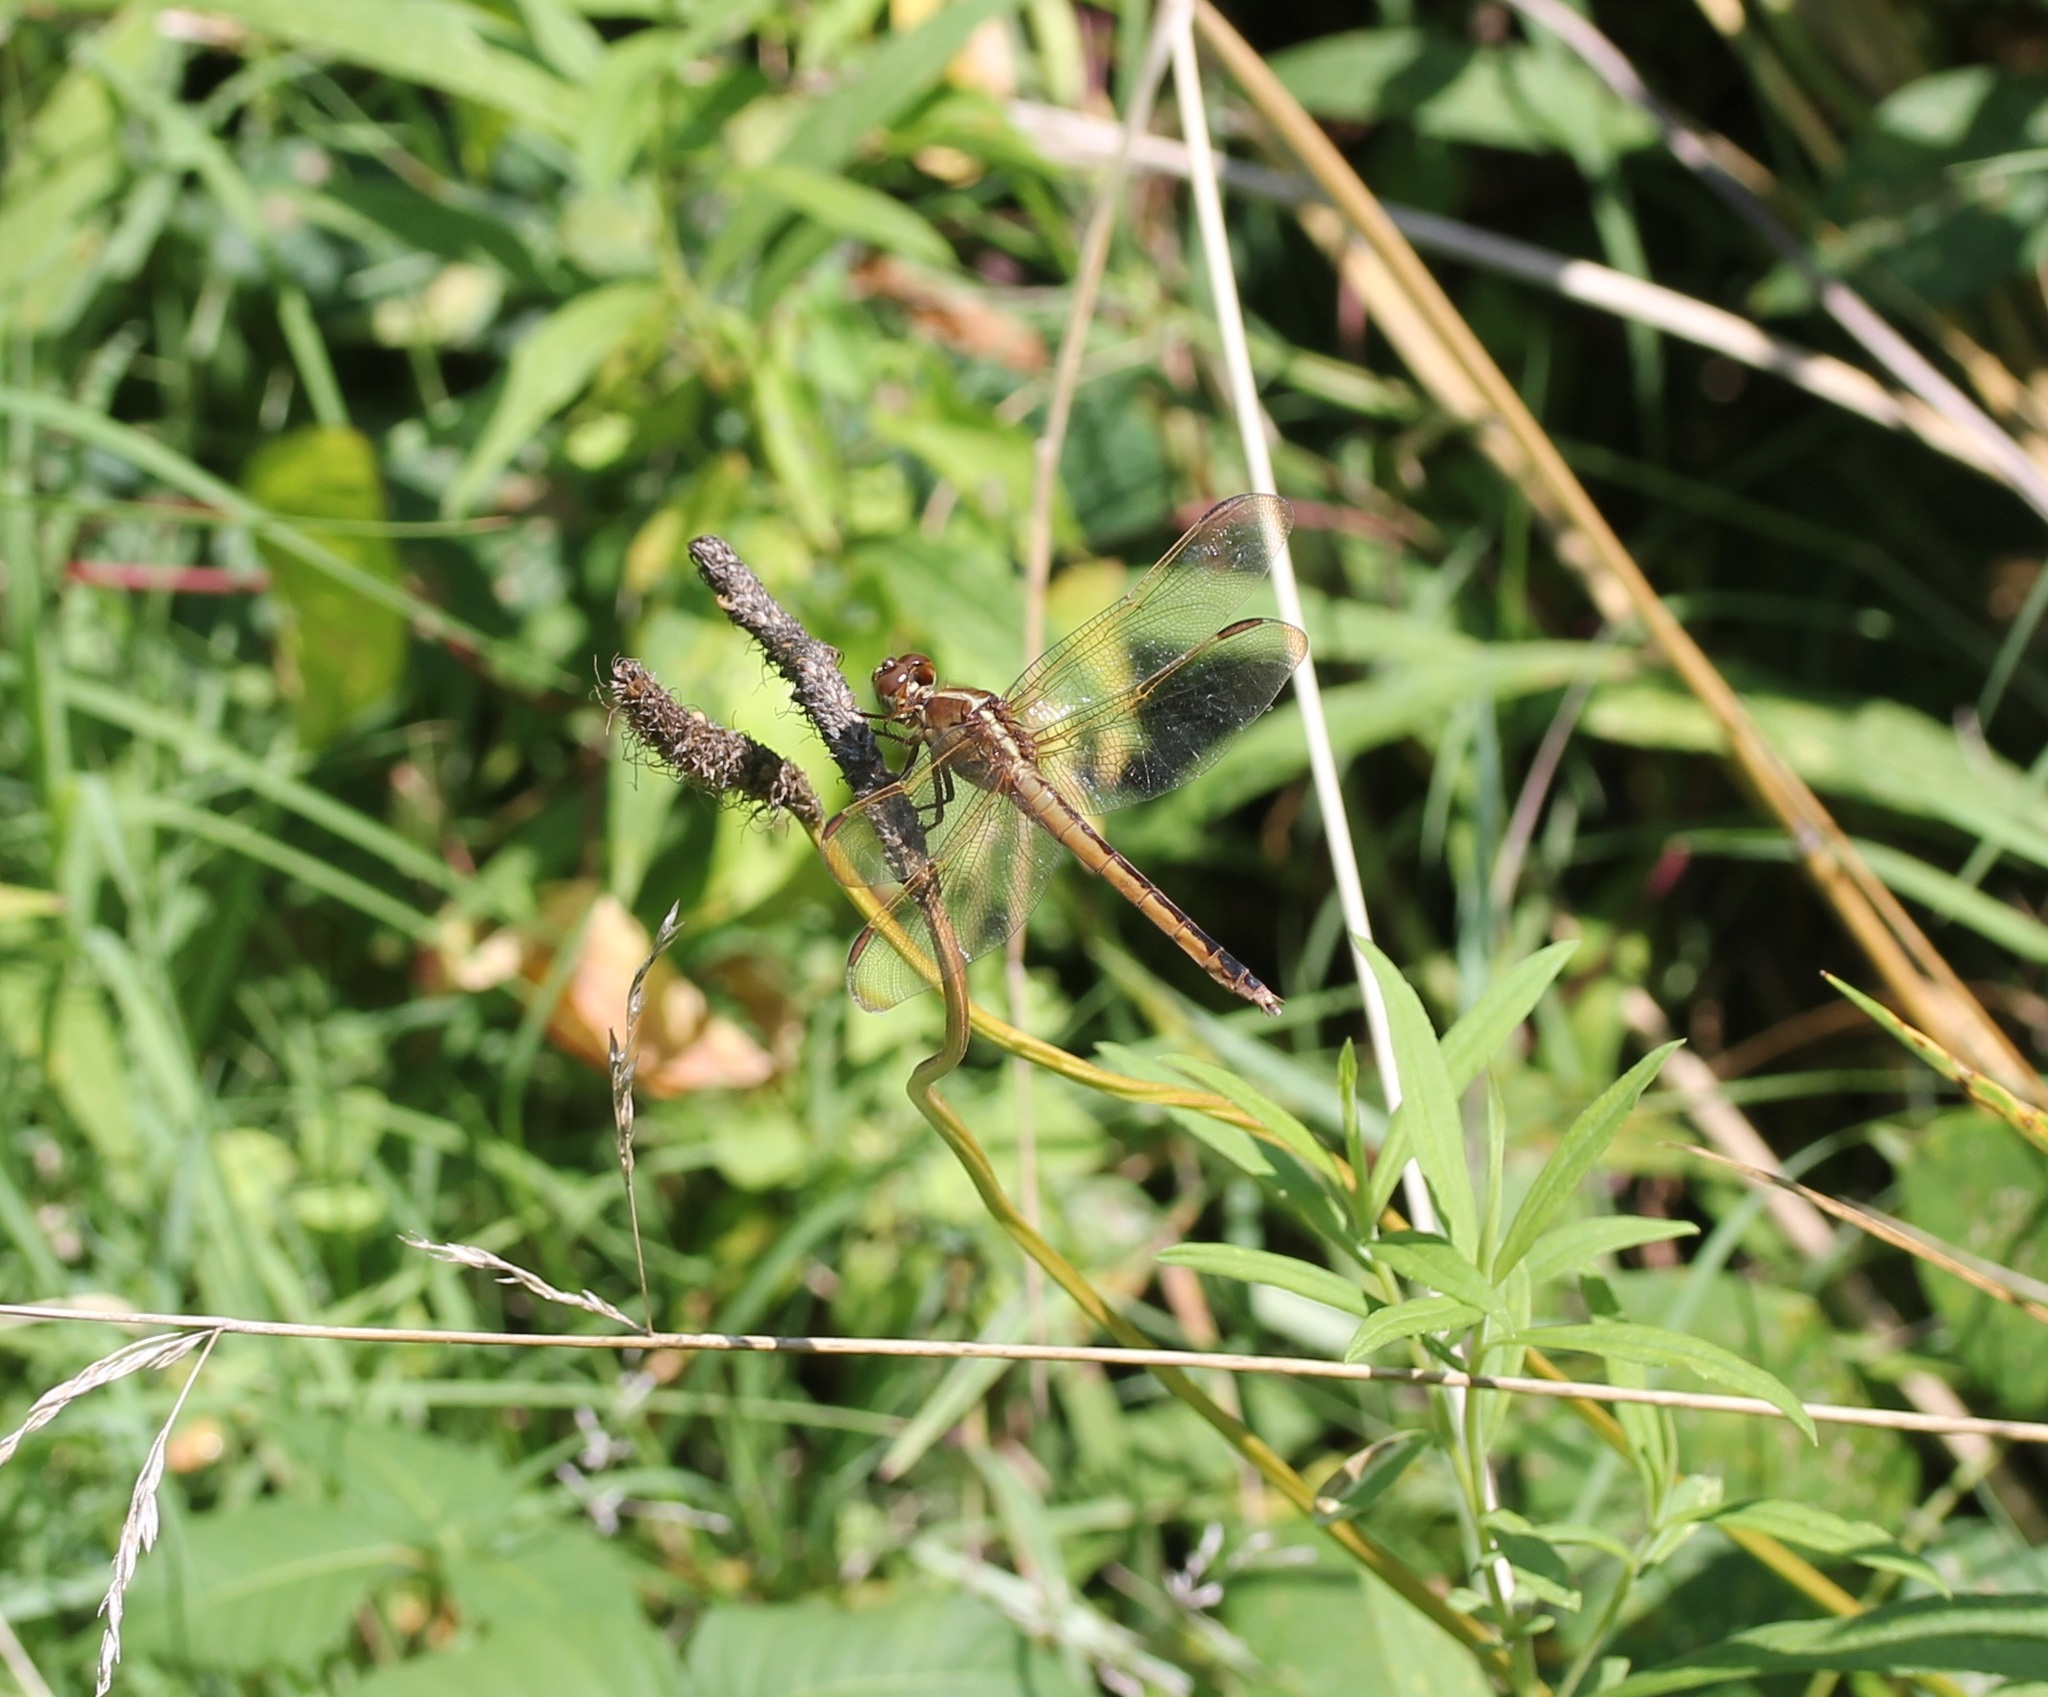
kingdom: Animalia
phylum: Arthropoda
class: Insecta
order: Odonata
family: Libellulidae
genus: Libellula
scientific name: Libellula needhami
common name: Needham's skimmer
